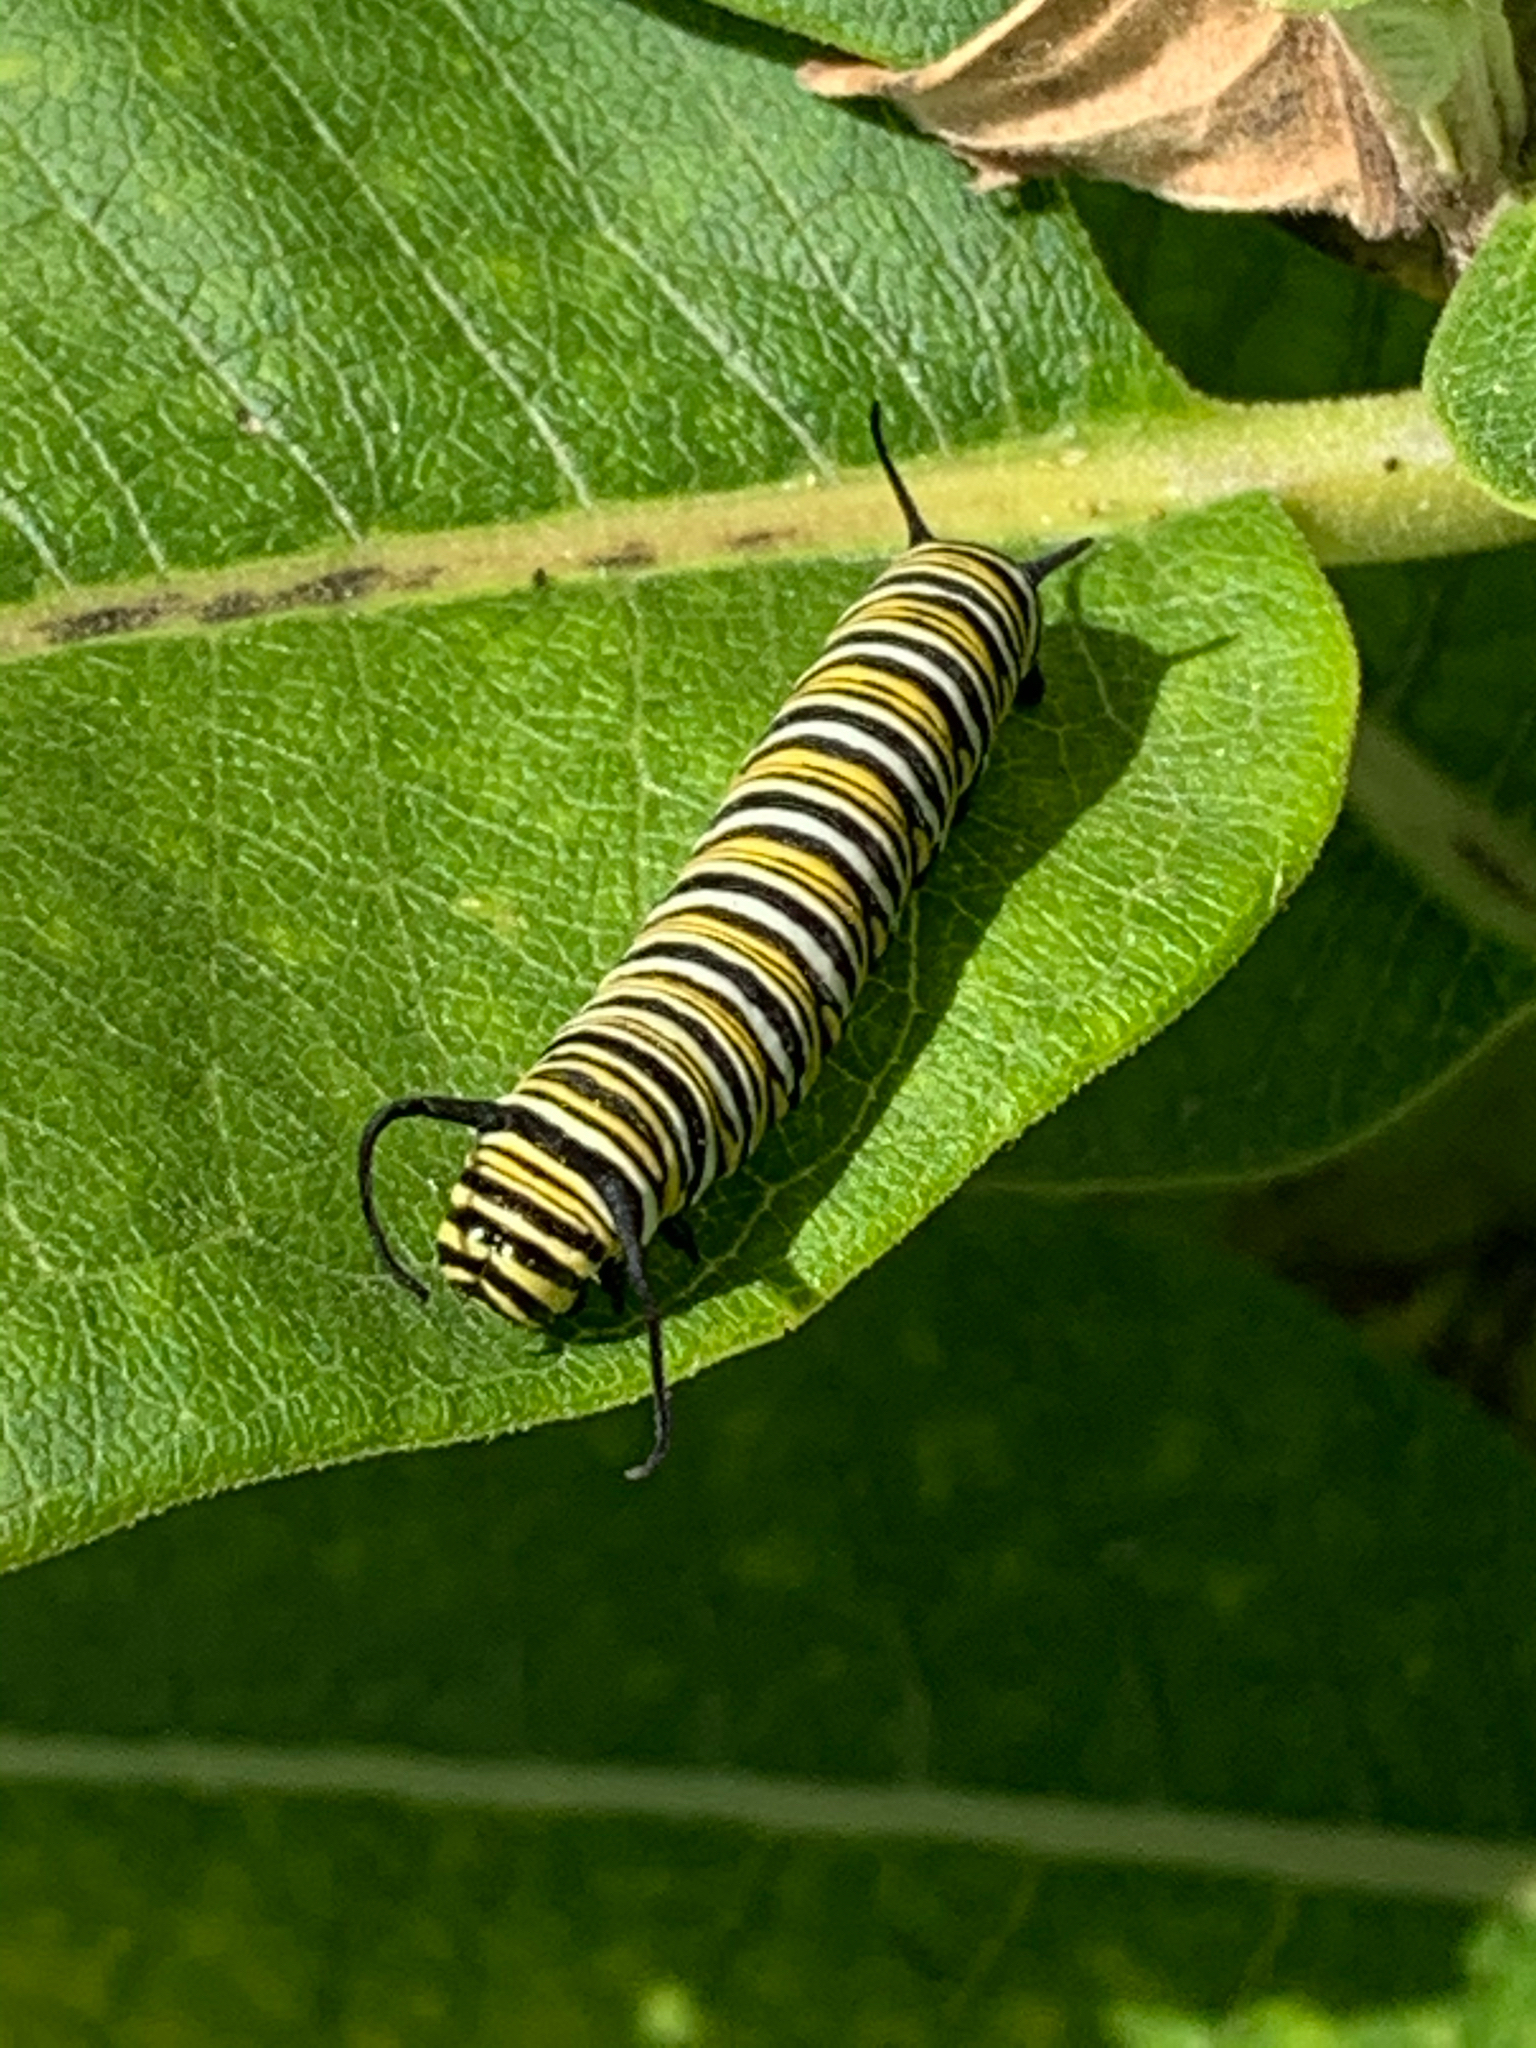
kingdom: Animalia
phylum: Arthropoda
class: Insecta
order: Lepidoptera
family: Nymphalidae
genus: Danaus
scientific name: Danaus plexippus
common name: Monarch
